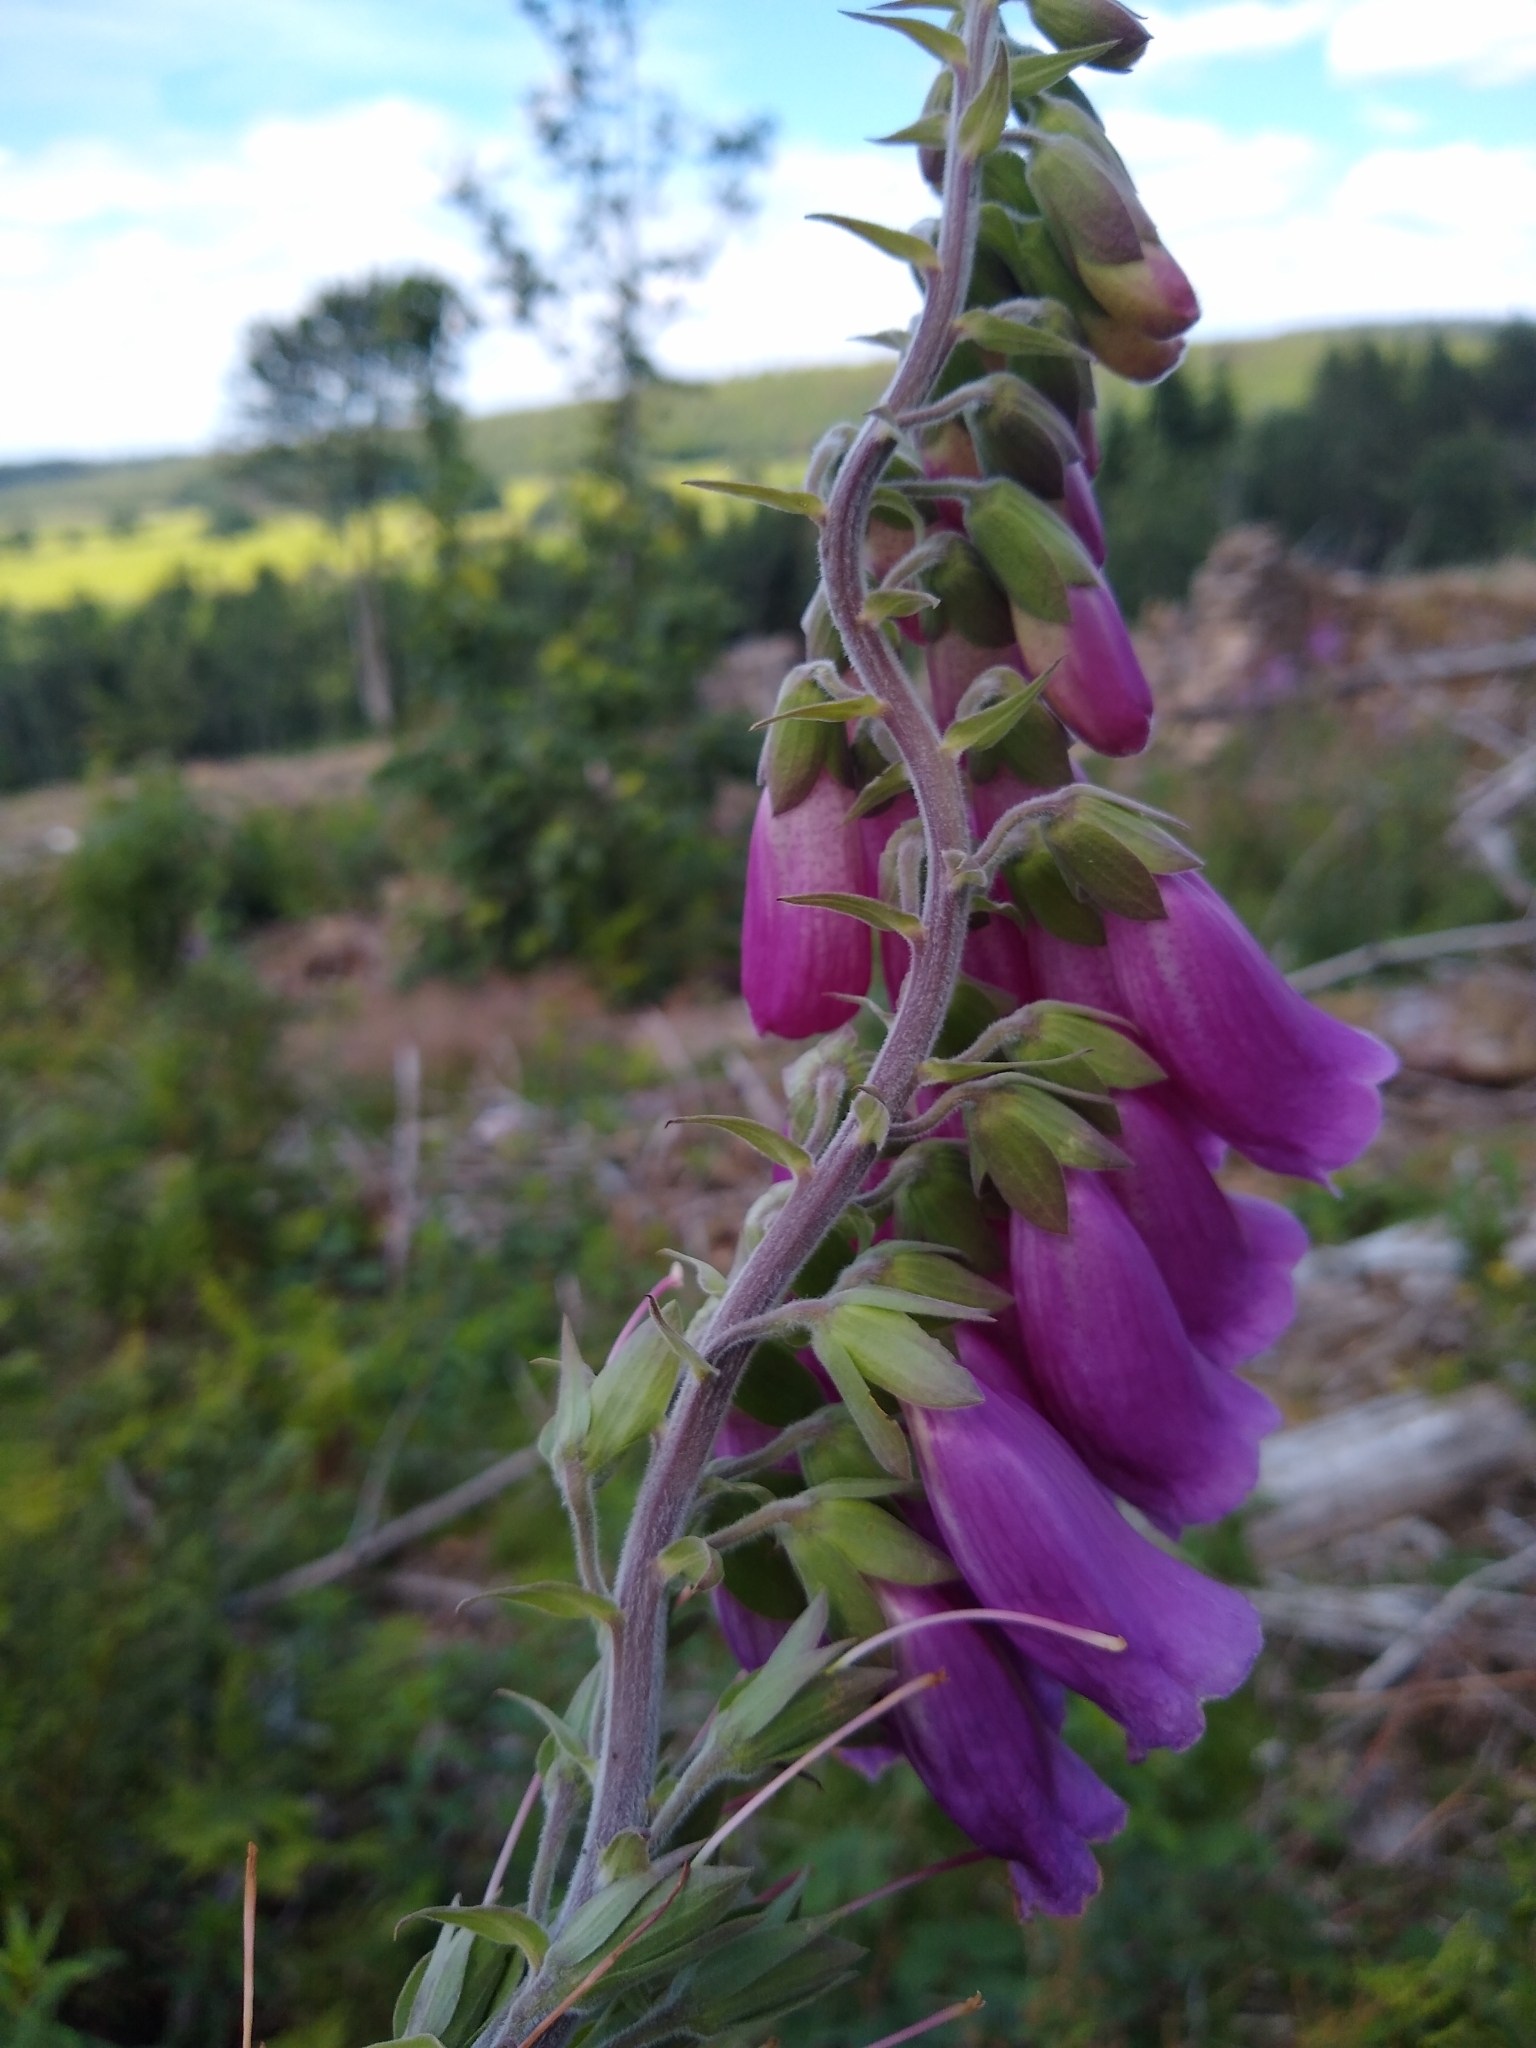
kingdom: Plantae
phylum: Tracheophyta
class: Magnoliopsida
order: Lamiales
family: Plantaginaceae
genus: Digitalis
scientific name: Digitalis purpurea
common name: Foxglove
